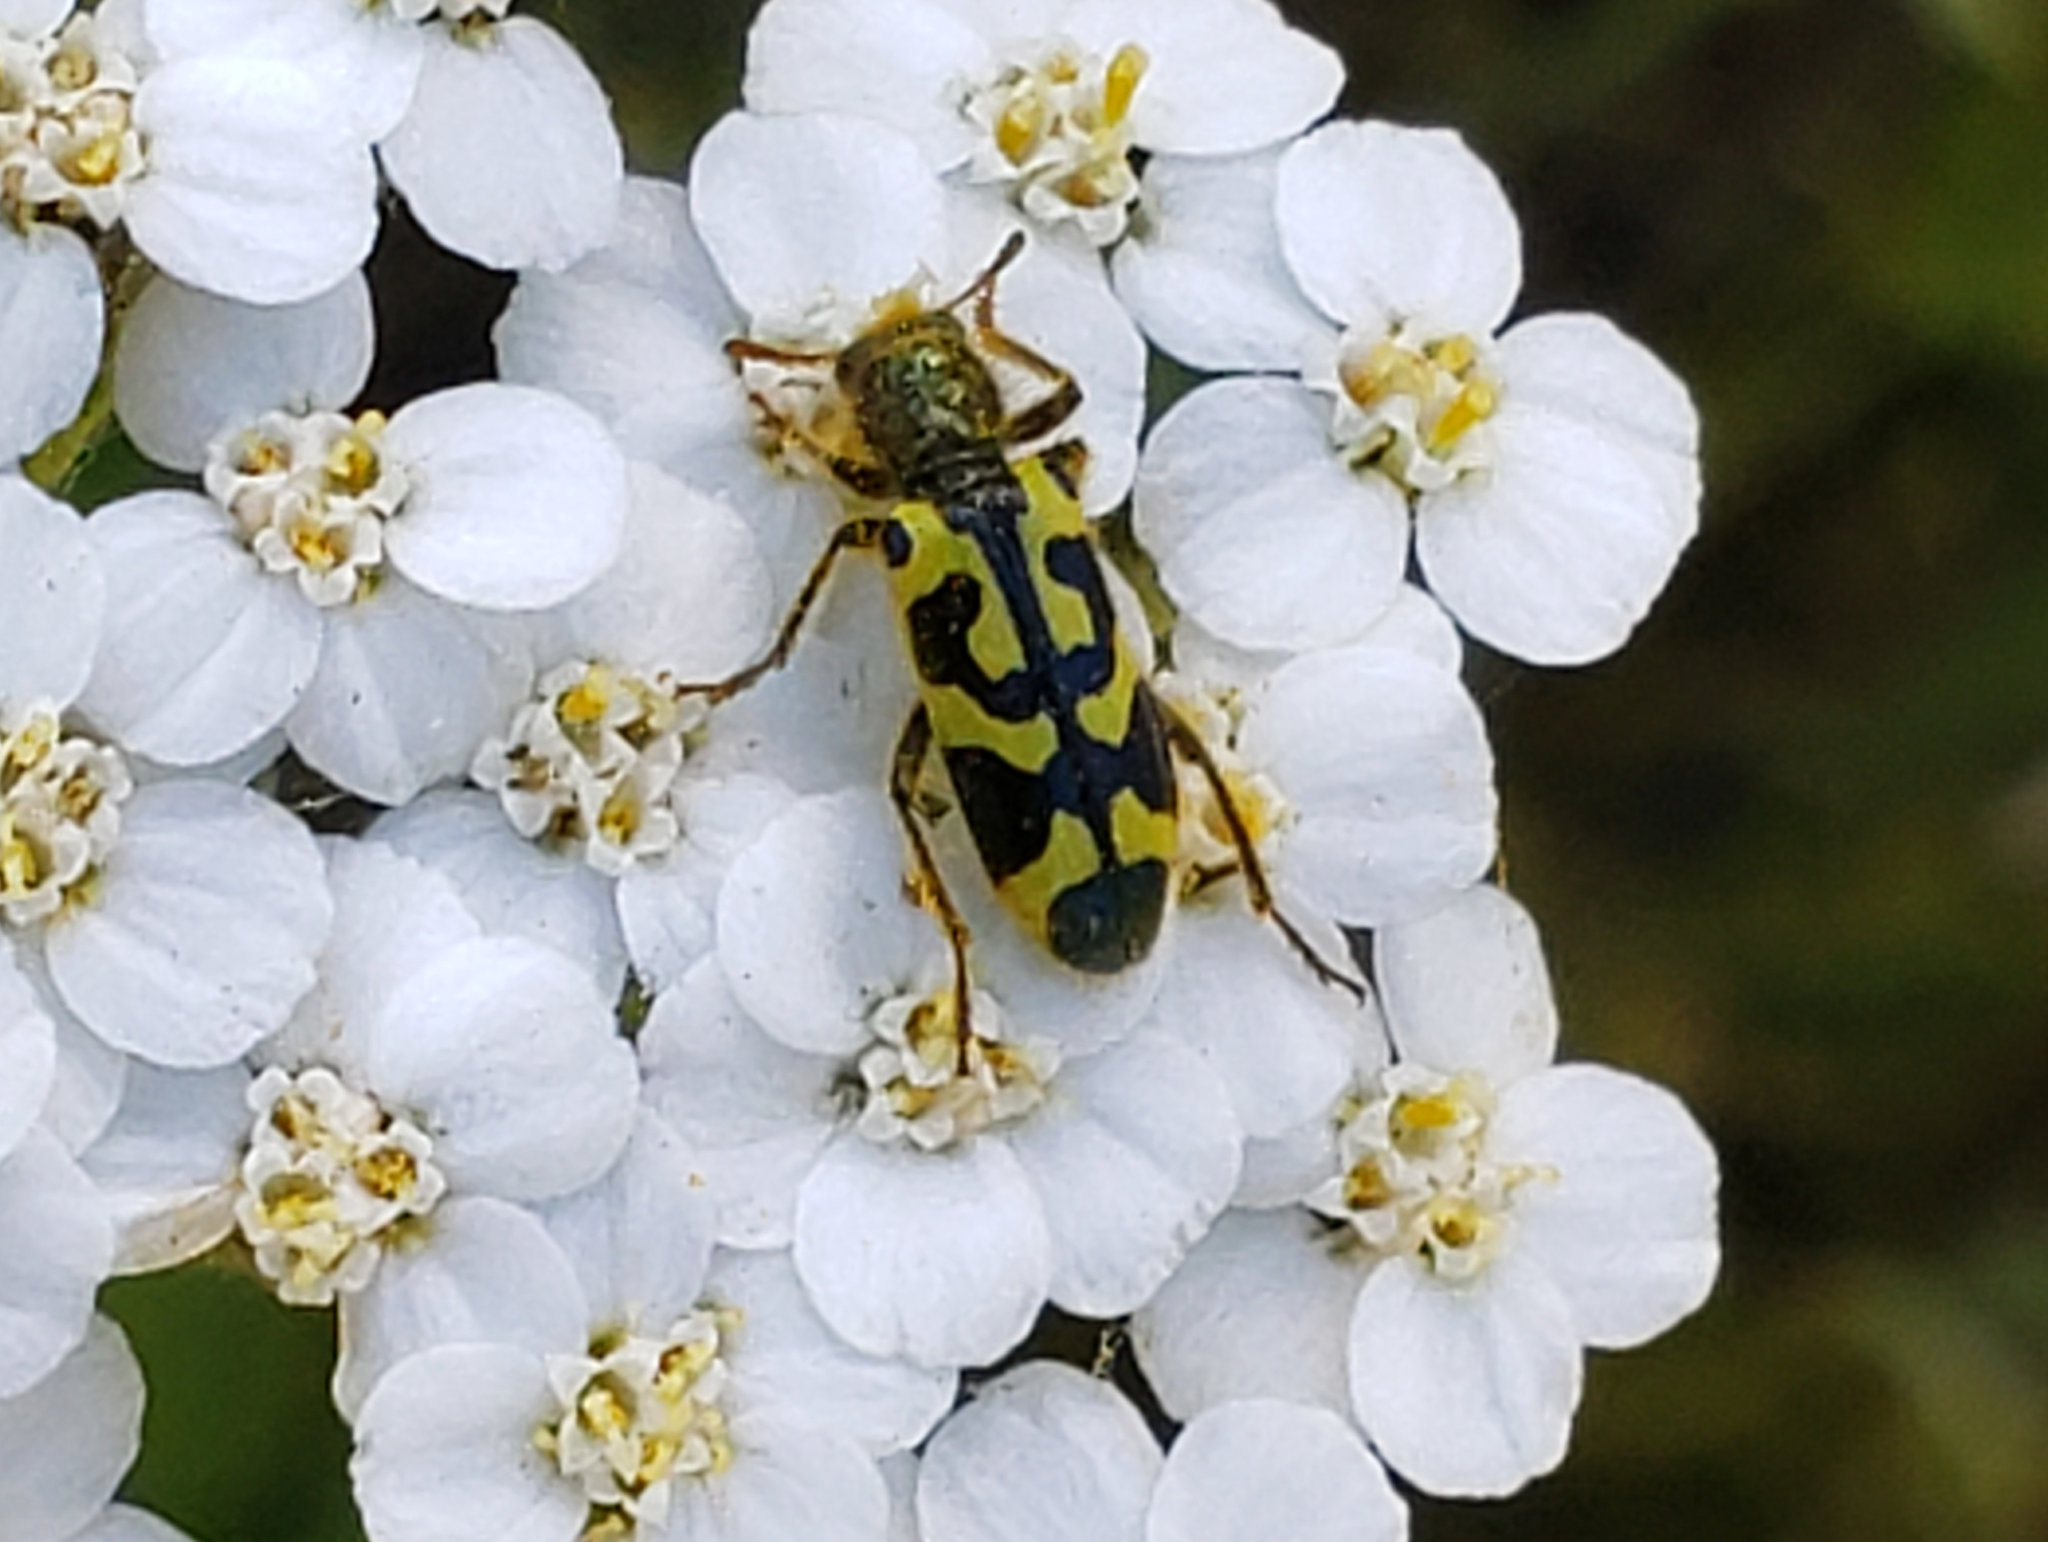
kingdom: Animalia
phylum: Arthropoda
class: Insecta
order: Coleoptera
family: Cleridae
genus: Trichodes
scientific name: Trichodes ornatus
